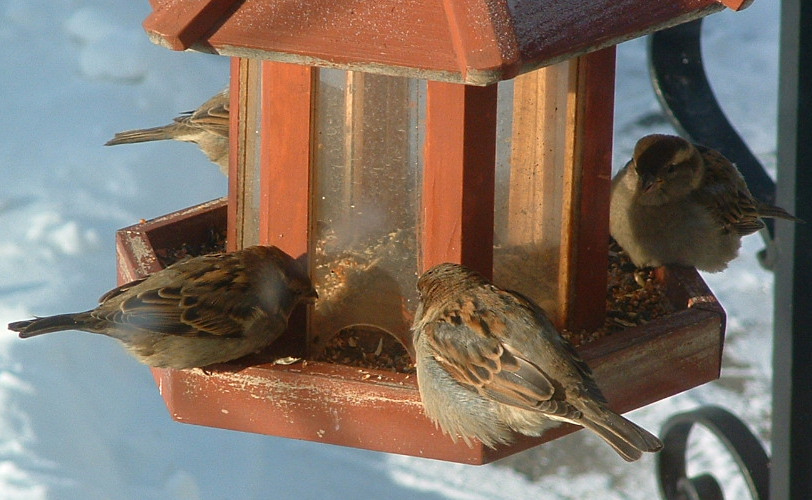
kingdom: Animalia
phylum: Chordata
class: Aves
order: Passeriformes
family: Passeridae
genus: Passer
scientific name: Passer domesticus
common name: House sparrow
